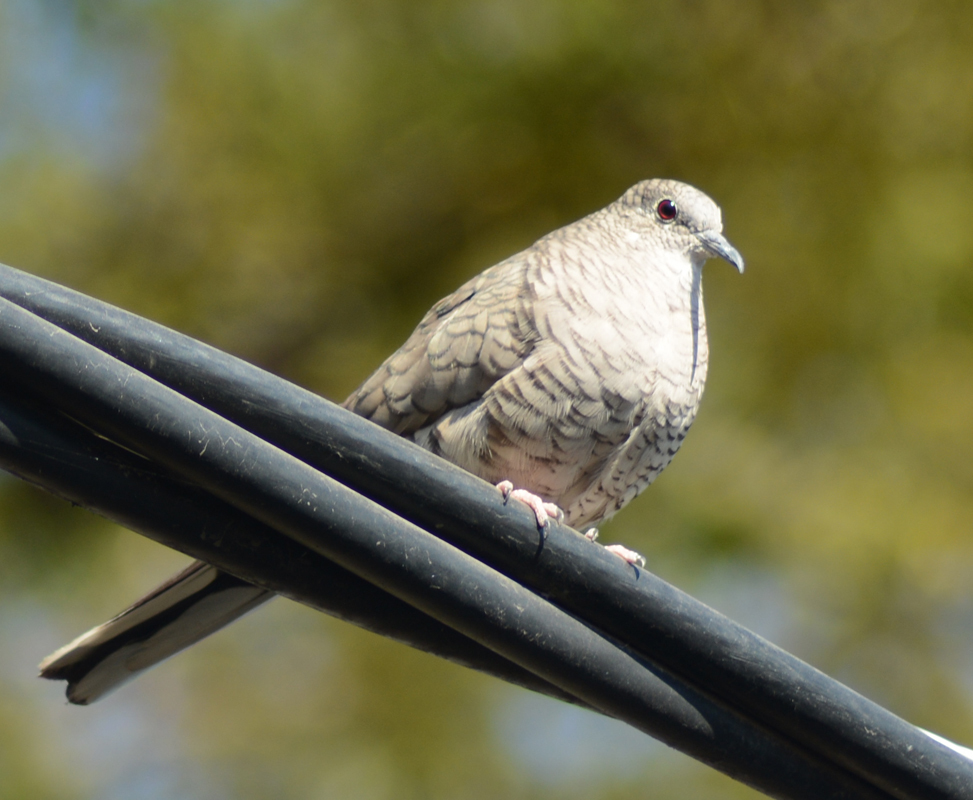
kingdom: Animalia
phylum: Chordata
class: Aves
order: Columbiformes
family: Columbidae
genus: Columbina
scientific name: Columbina inca
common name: Inca dove
